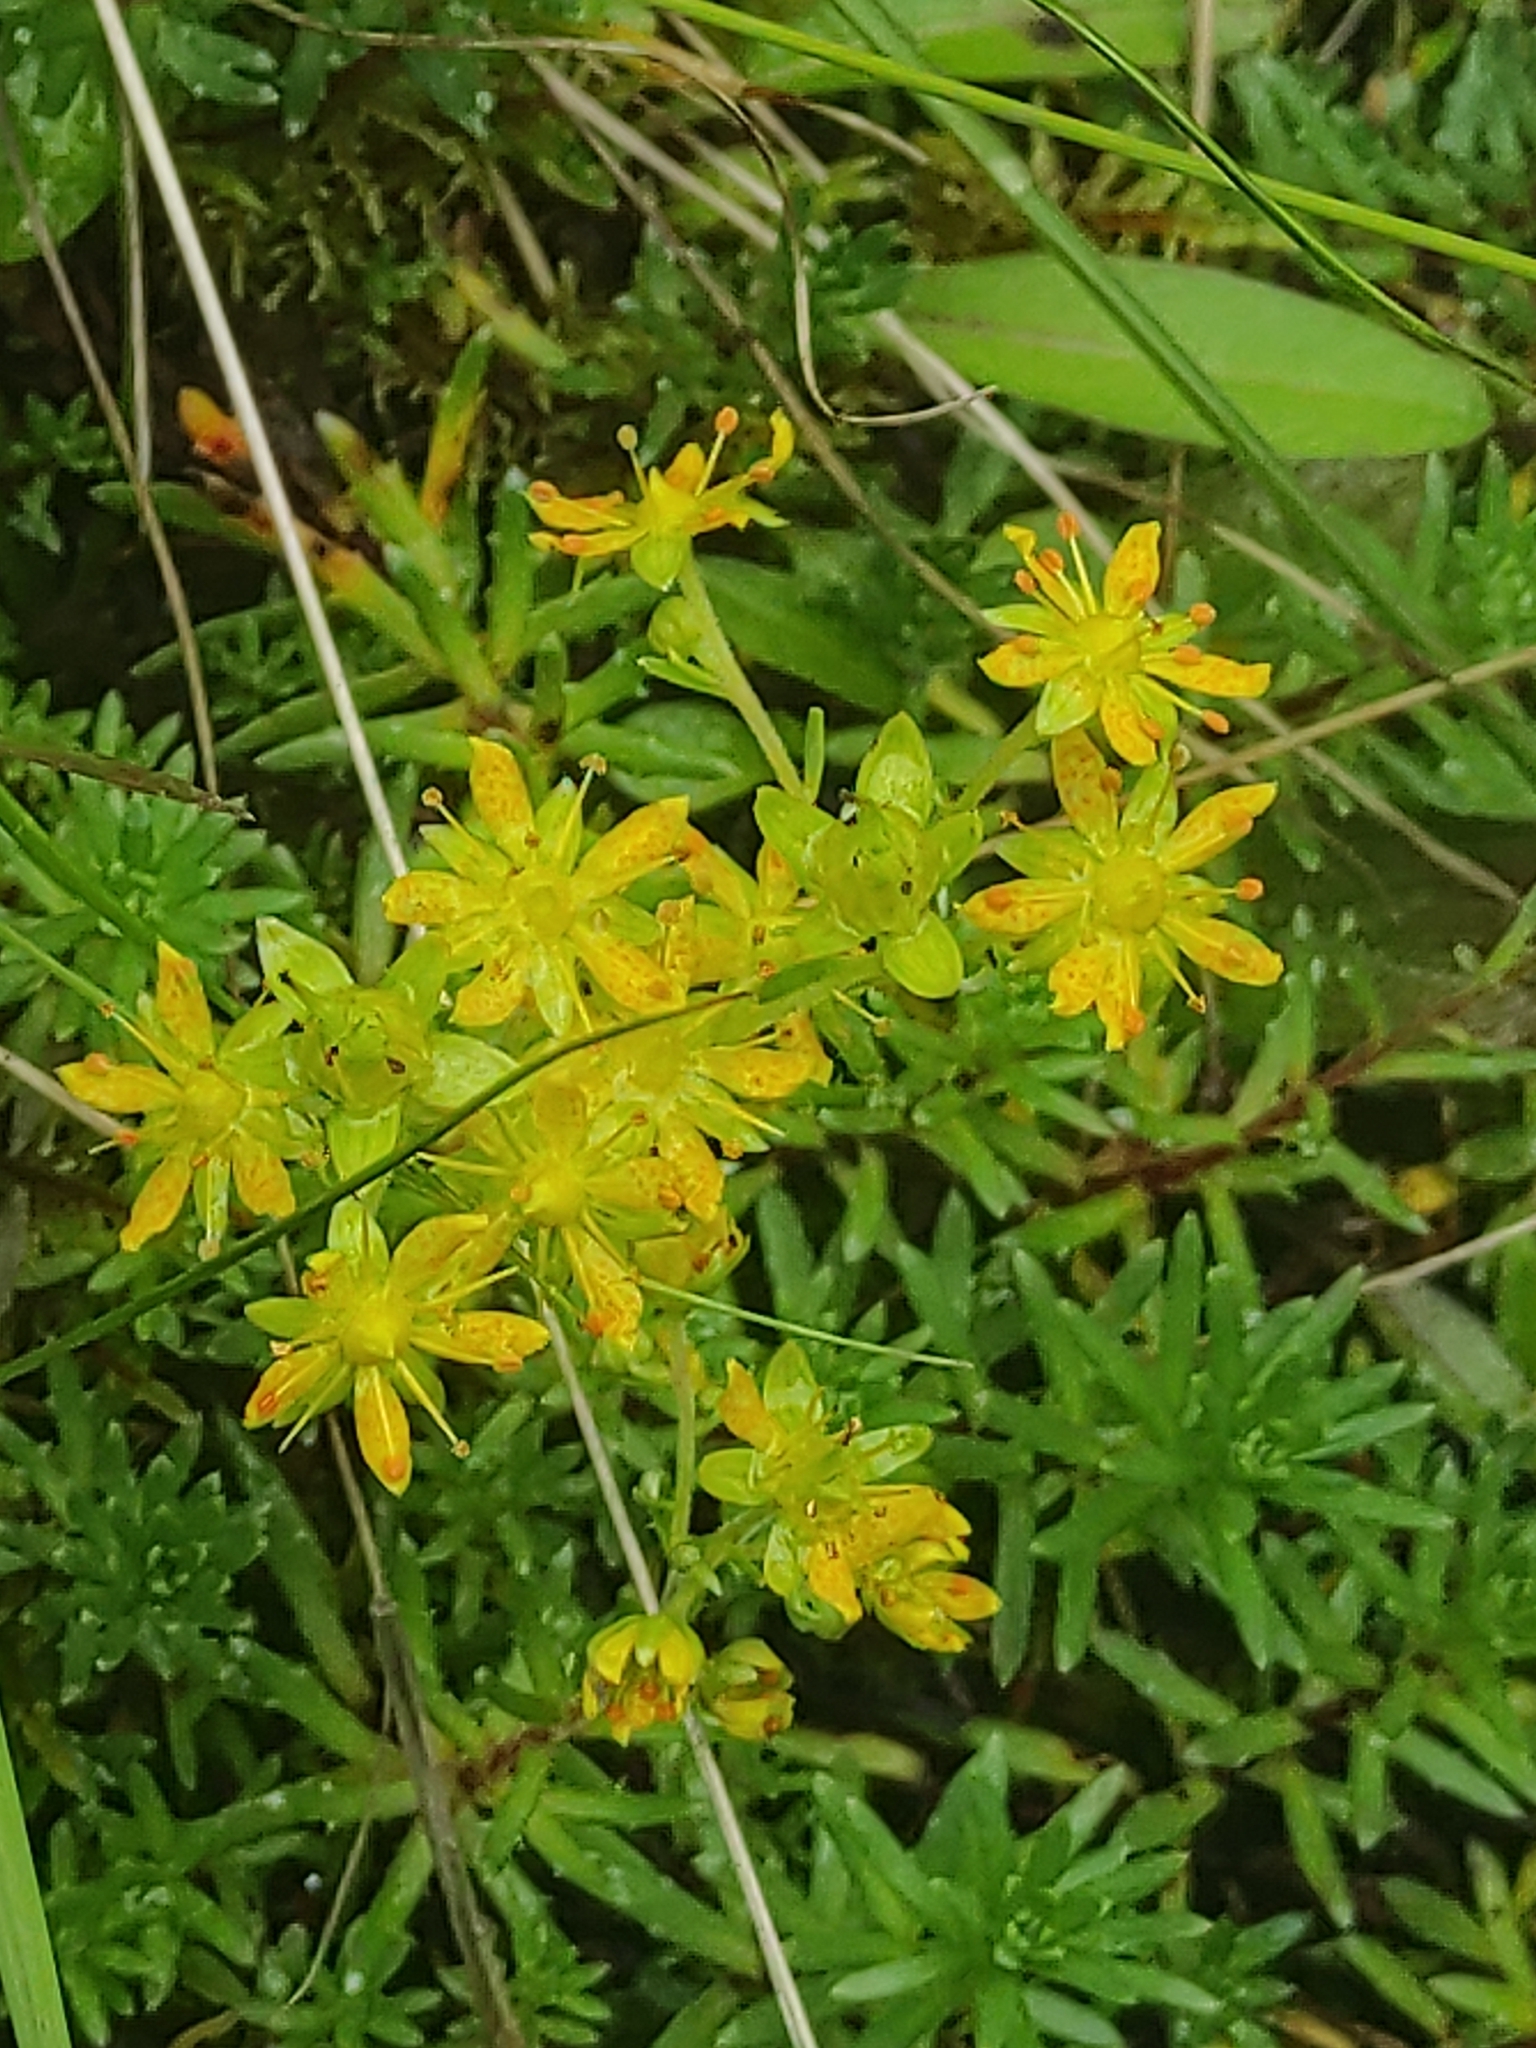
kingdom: Plantae
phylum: Tracheophyta
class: Magnoliopsida
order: Saxifragales
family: Saxifragaceae
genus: Saxifraga
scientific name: Saxifraga aizoides
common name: Yellow mountain saxifrage
